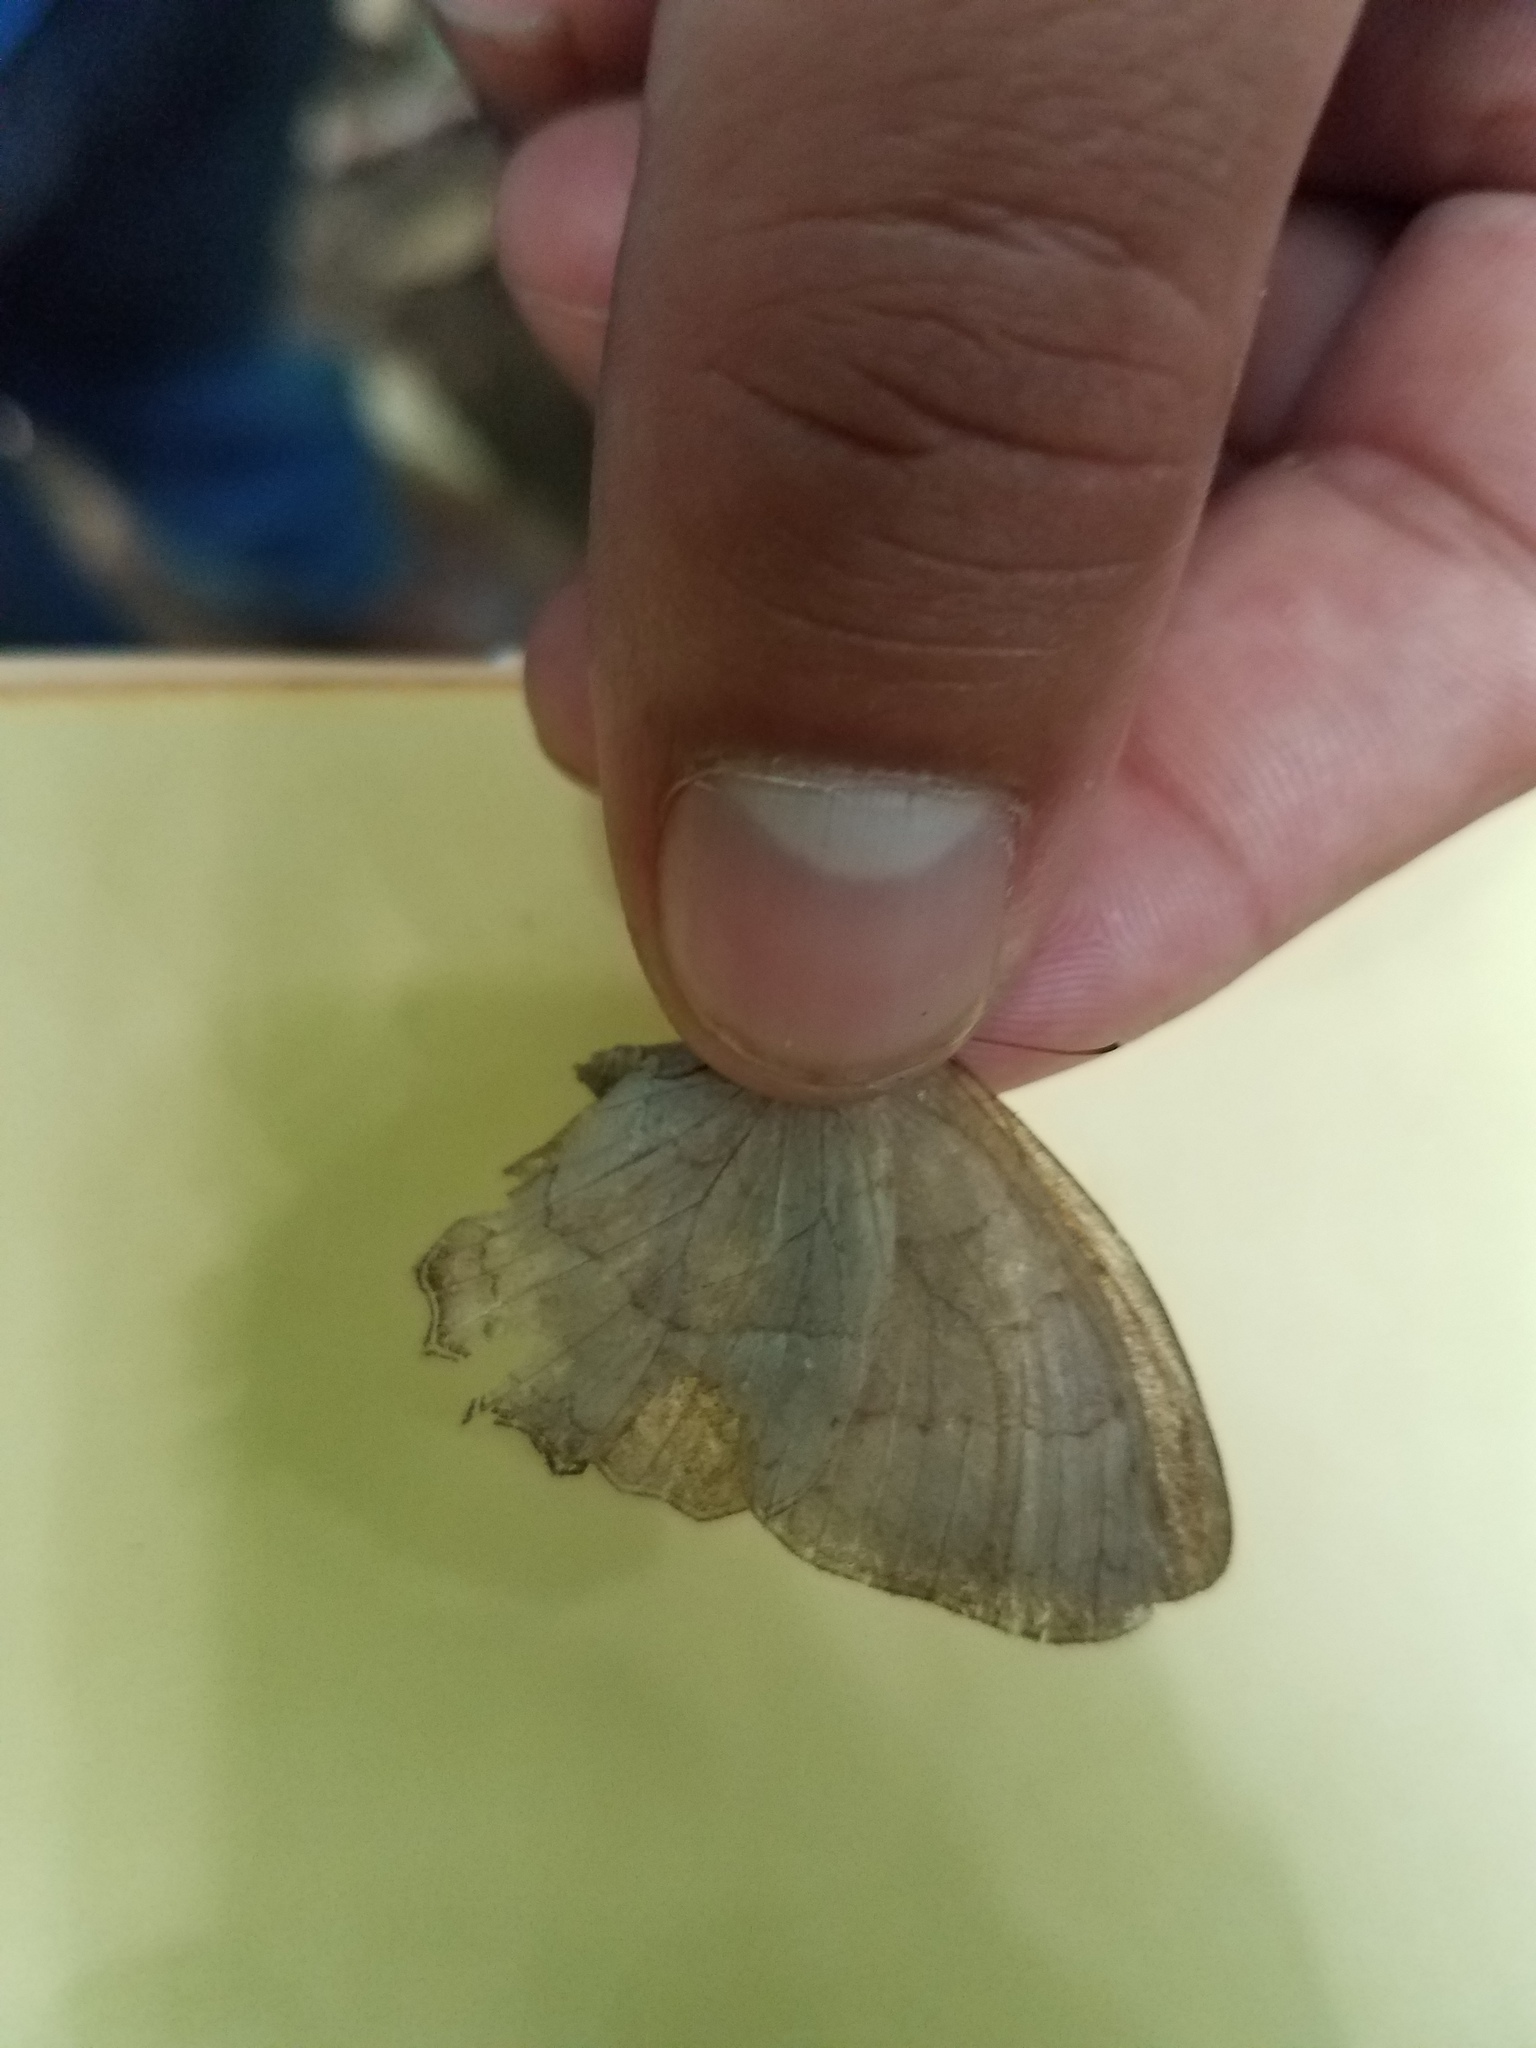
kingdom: Animalia
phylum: Arthropoda
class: Insecta
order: Lepidoptera
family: Nymphalidae
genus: Taygetina
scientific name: Taygetina kerea
